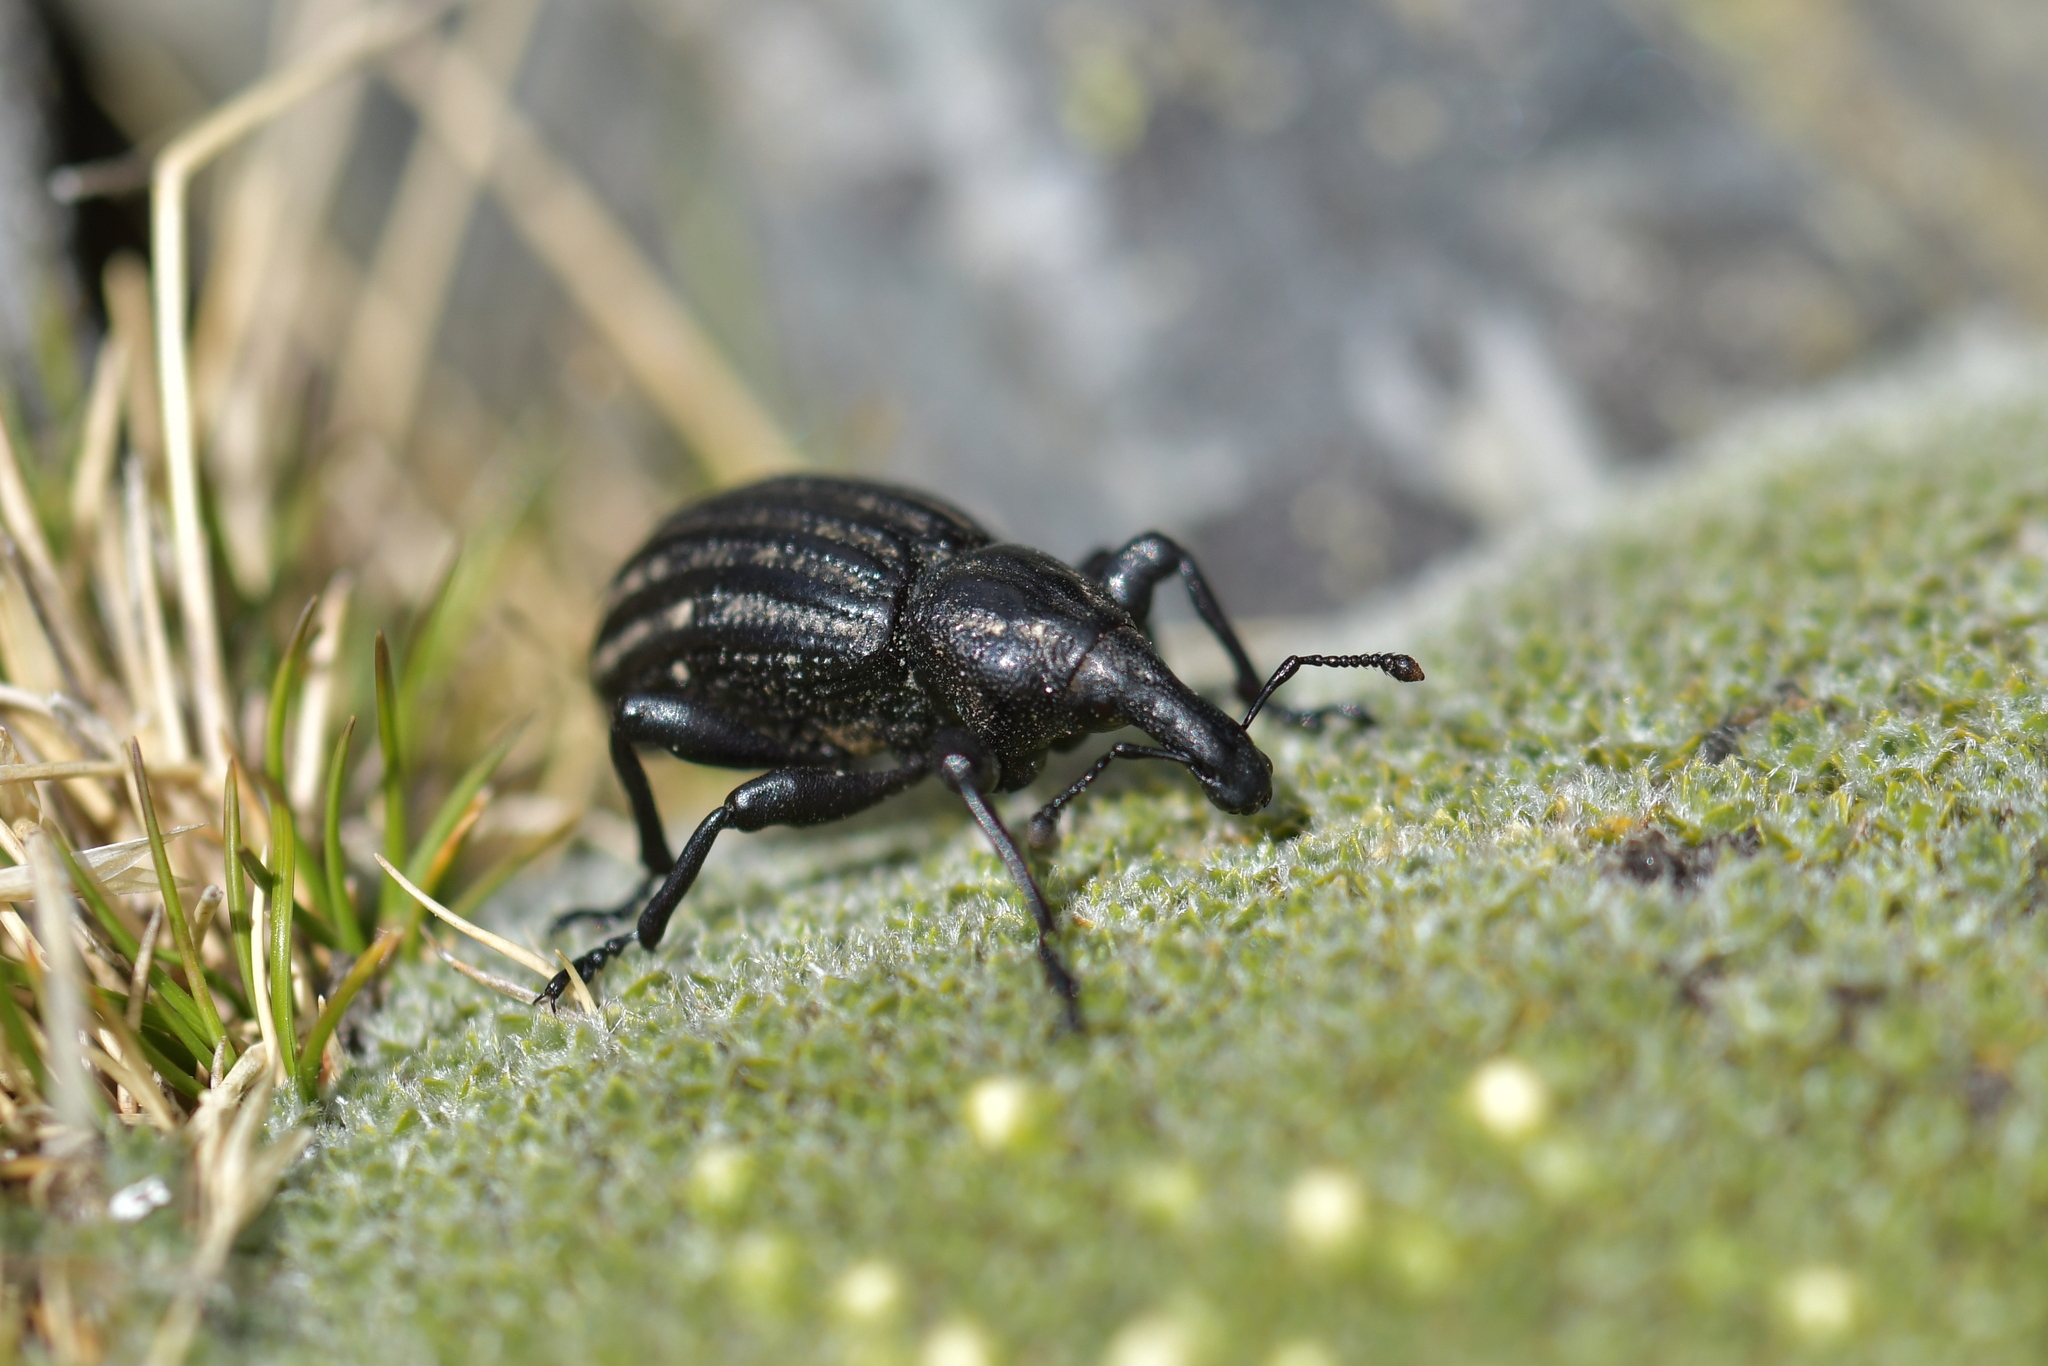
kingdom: Animalia
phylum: Arthropoda
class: Insecta
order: Coleoptera
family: Curculionidae
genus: Lyperobius
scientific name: Lyperobius hudsoni
